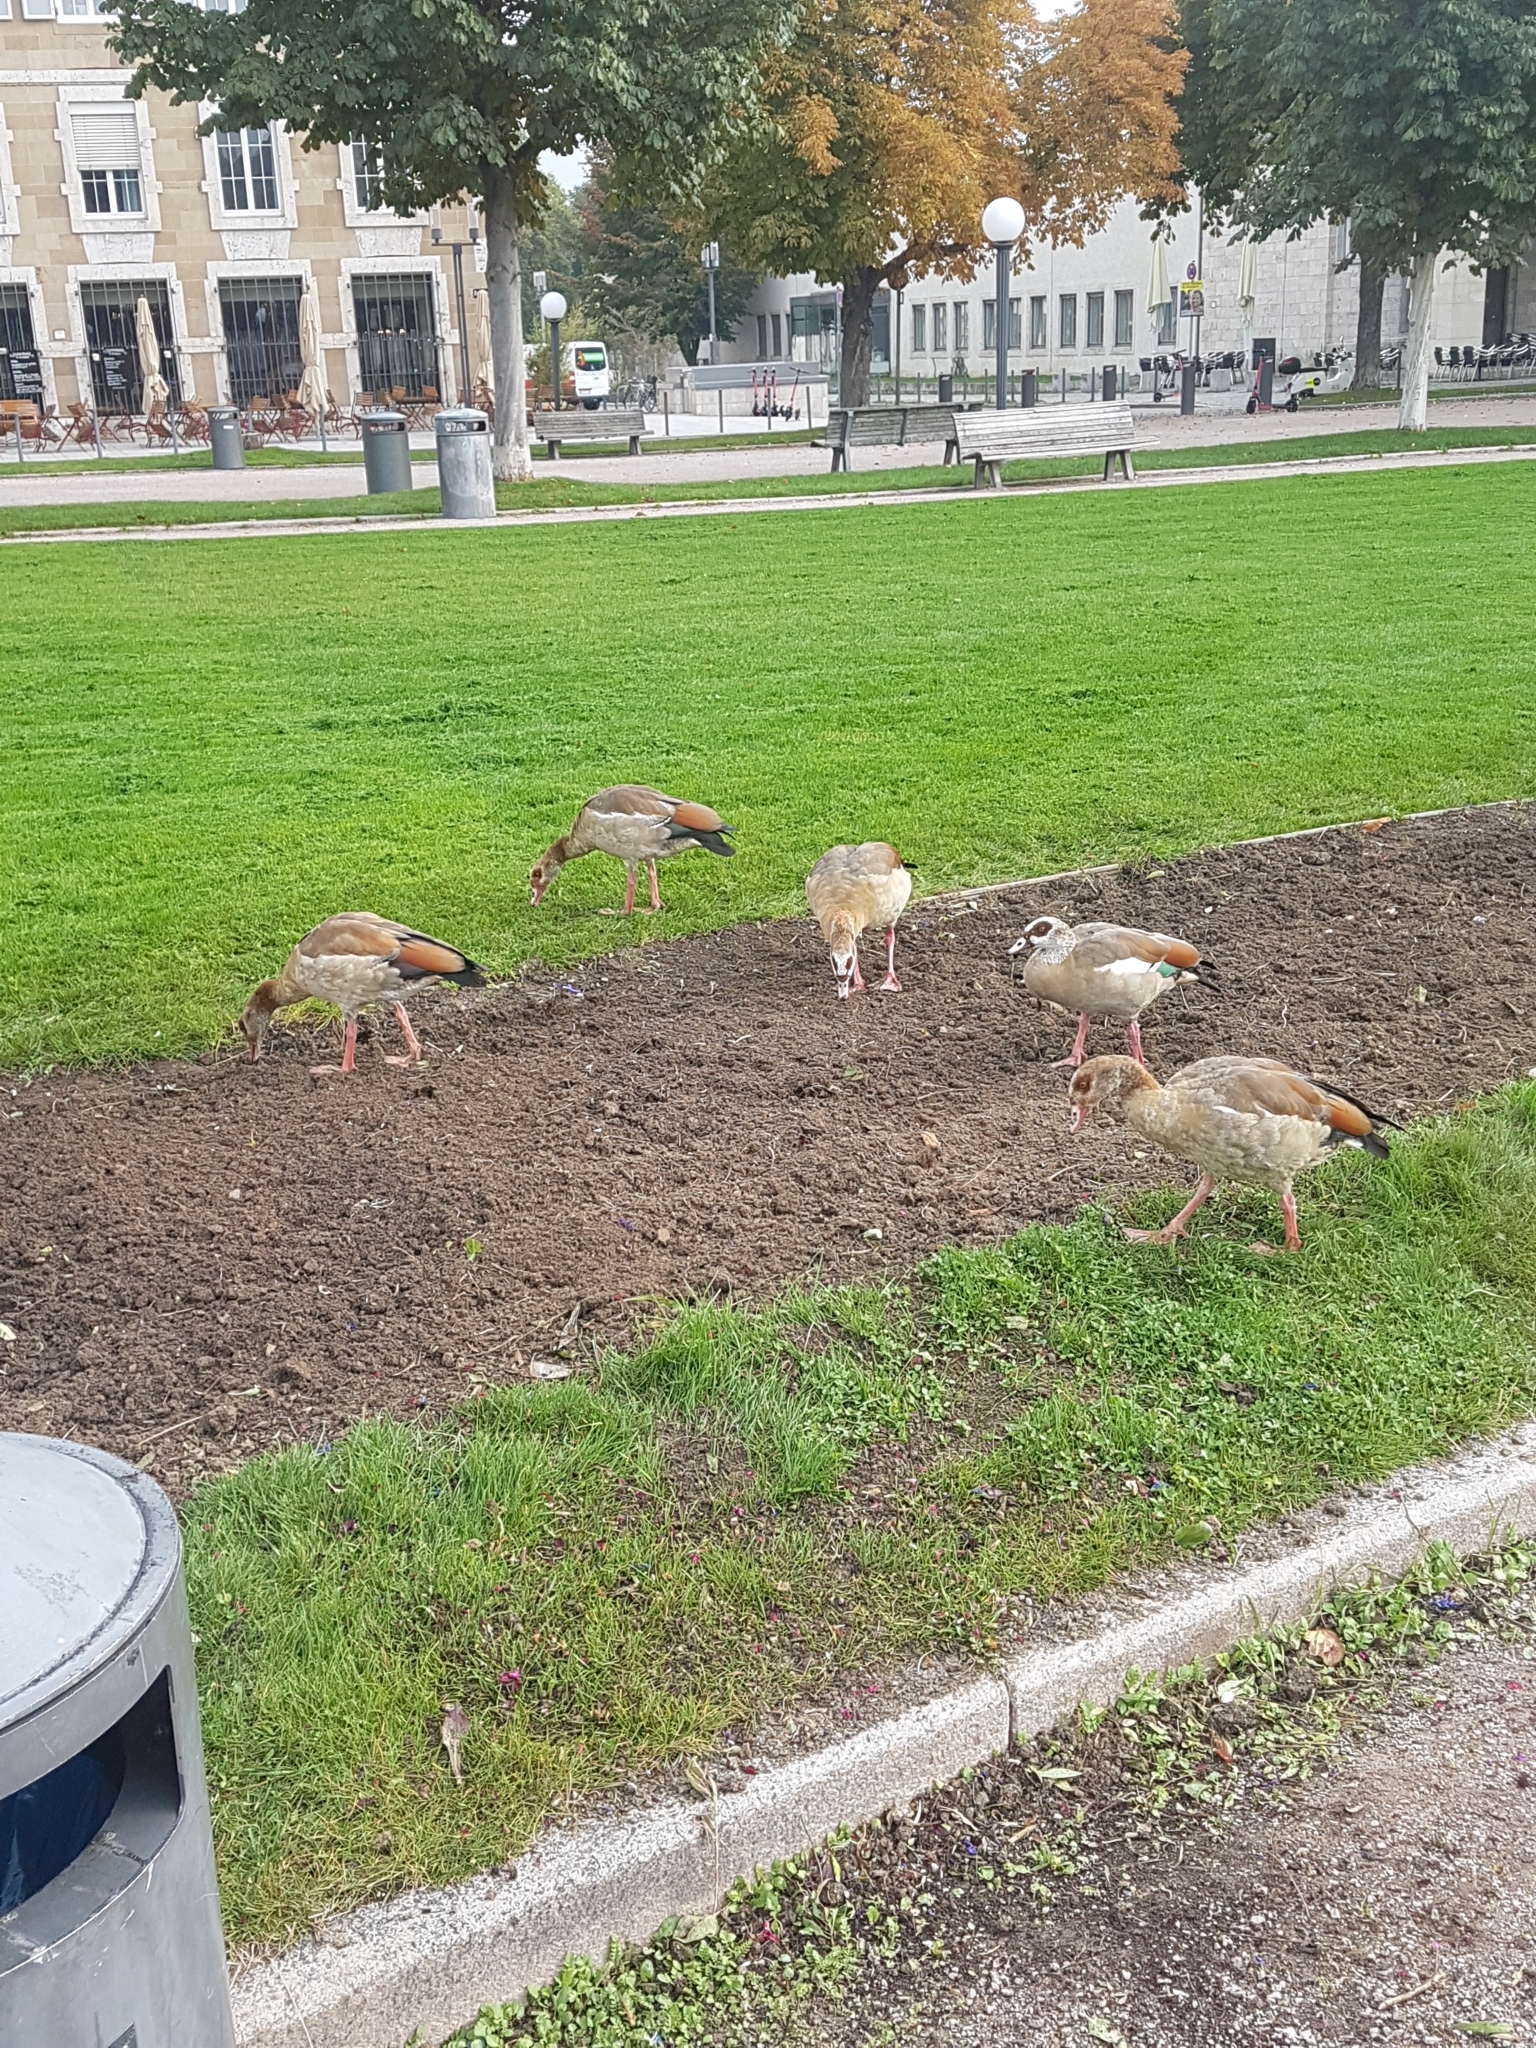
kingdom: Animalia
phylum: Chordata
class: Aves
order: Anseriformes
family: Anatidae
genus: Alopochen
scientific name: Alopochen aegyptiaca
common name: Egyptian goose
